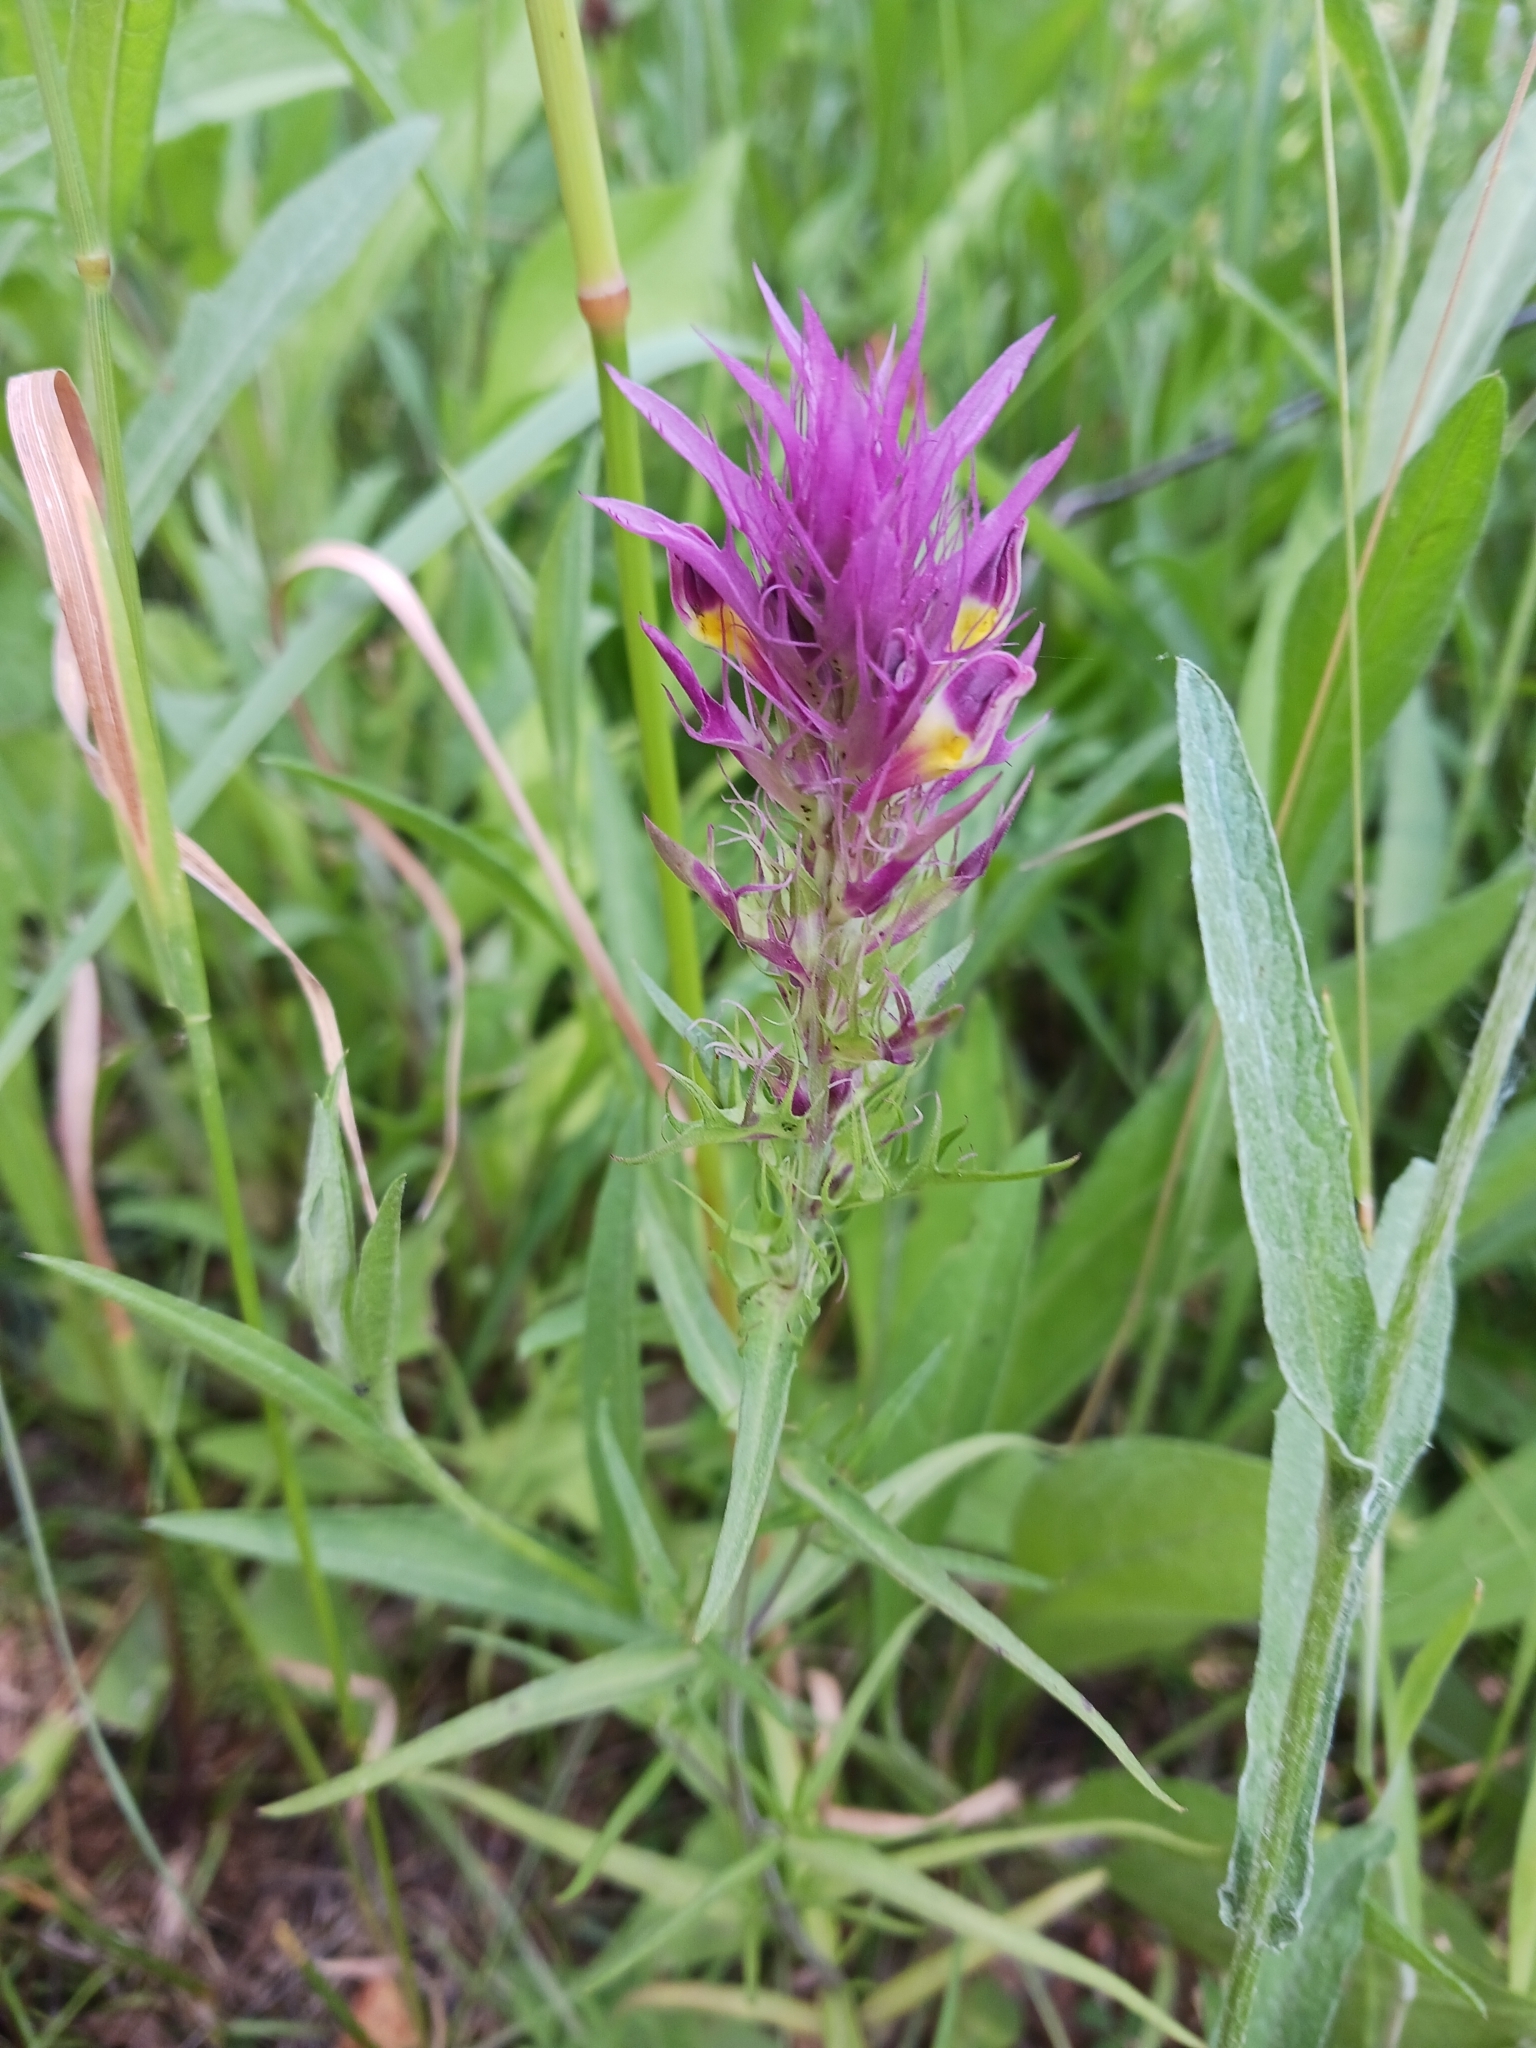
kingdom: Plantae
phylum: Tracheophyta
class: Magnoliopsida
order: Lamiales
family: Orobanchaceae
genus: Melampyrum
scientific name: Melampyrum arvense
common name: Field cow-wheat
